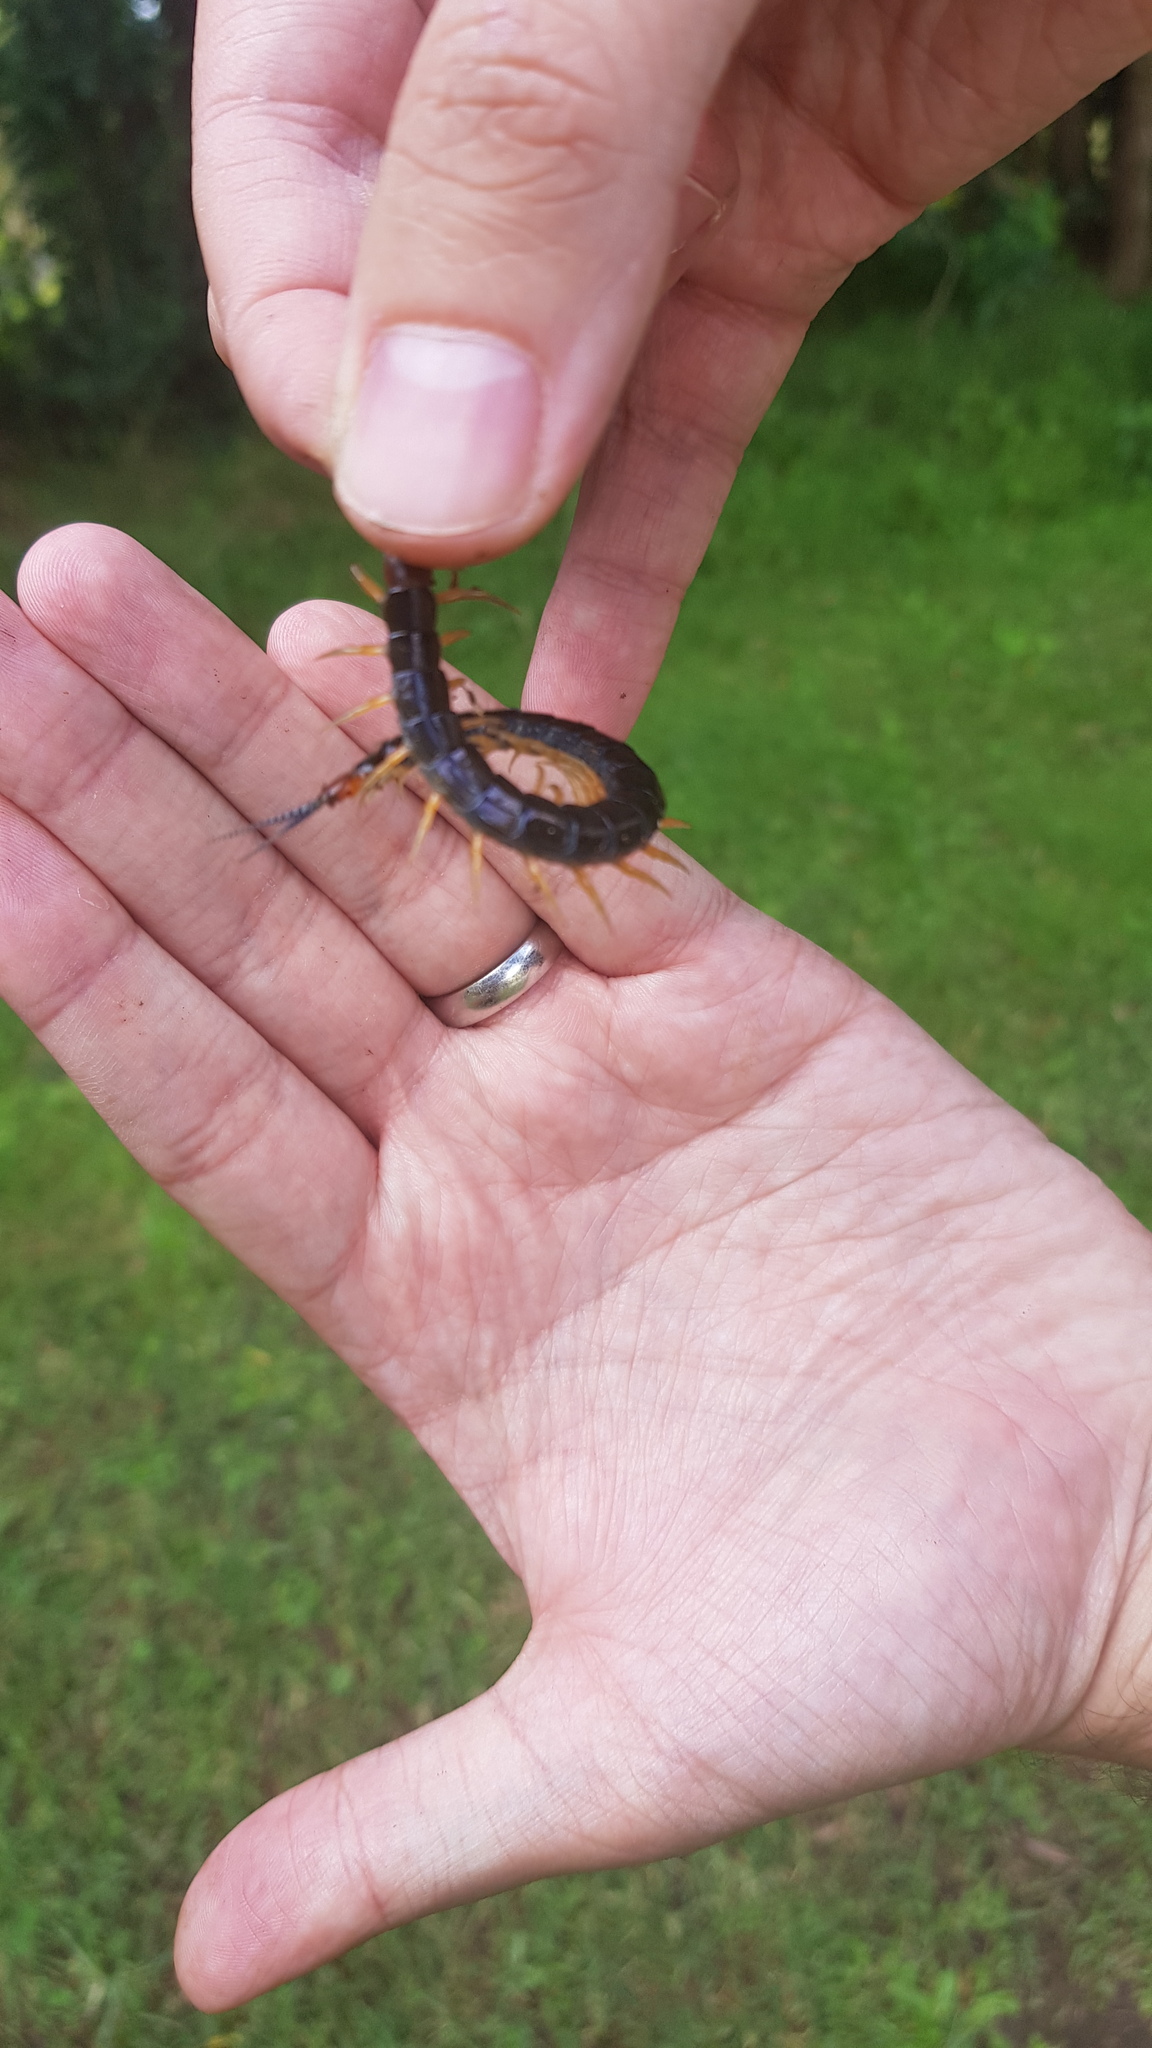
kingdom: Animalia
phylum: Arthropoda
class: Chilopoda
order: Scolopendromorpha
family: Scolopendridae
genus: Cormocephalus
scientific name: Cormocephalus westwoodi
